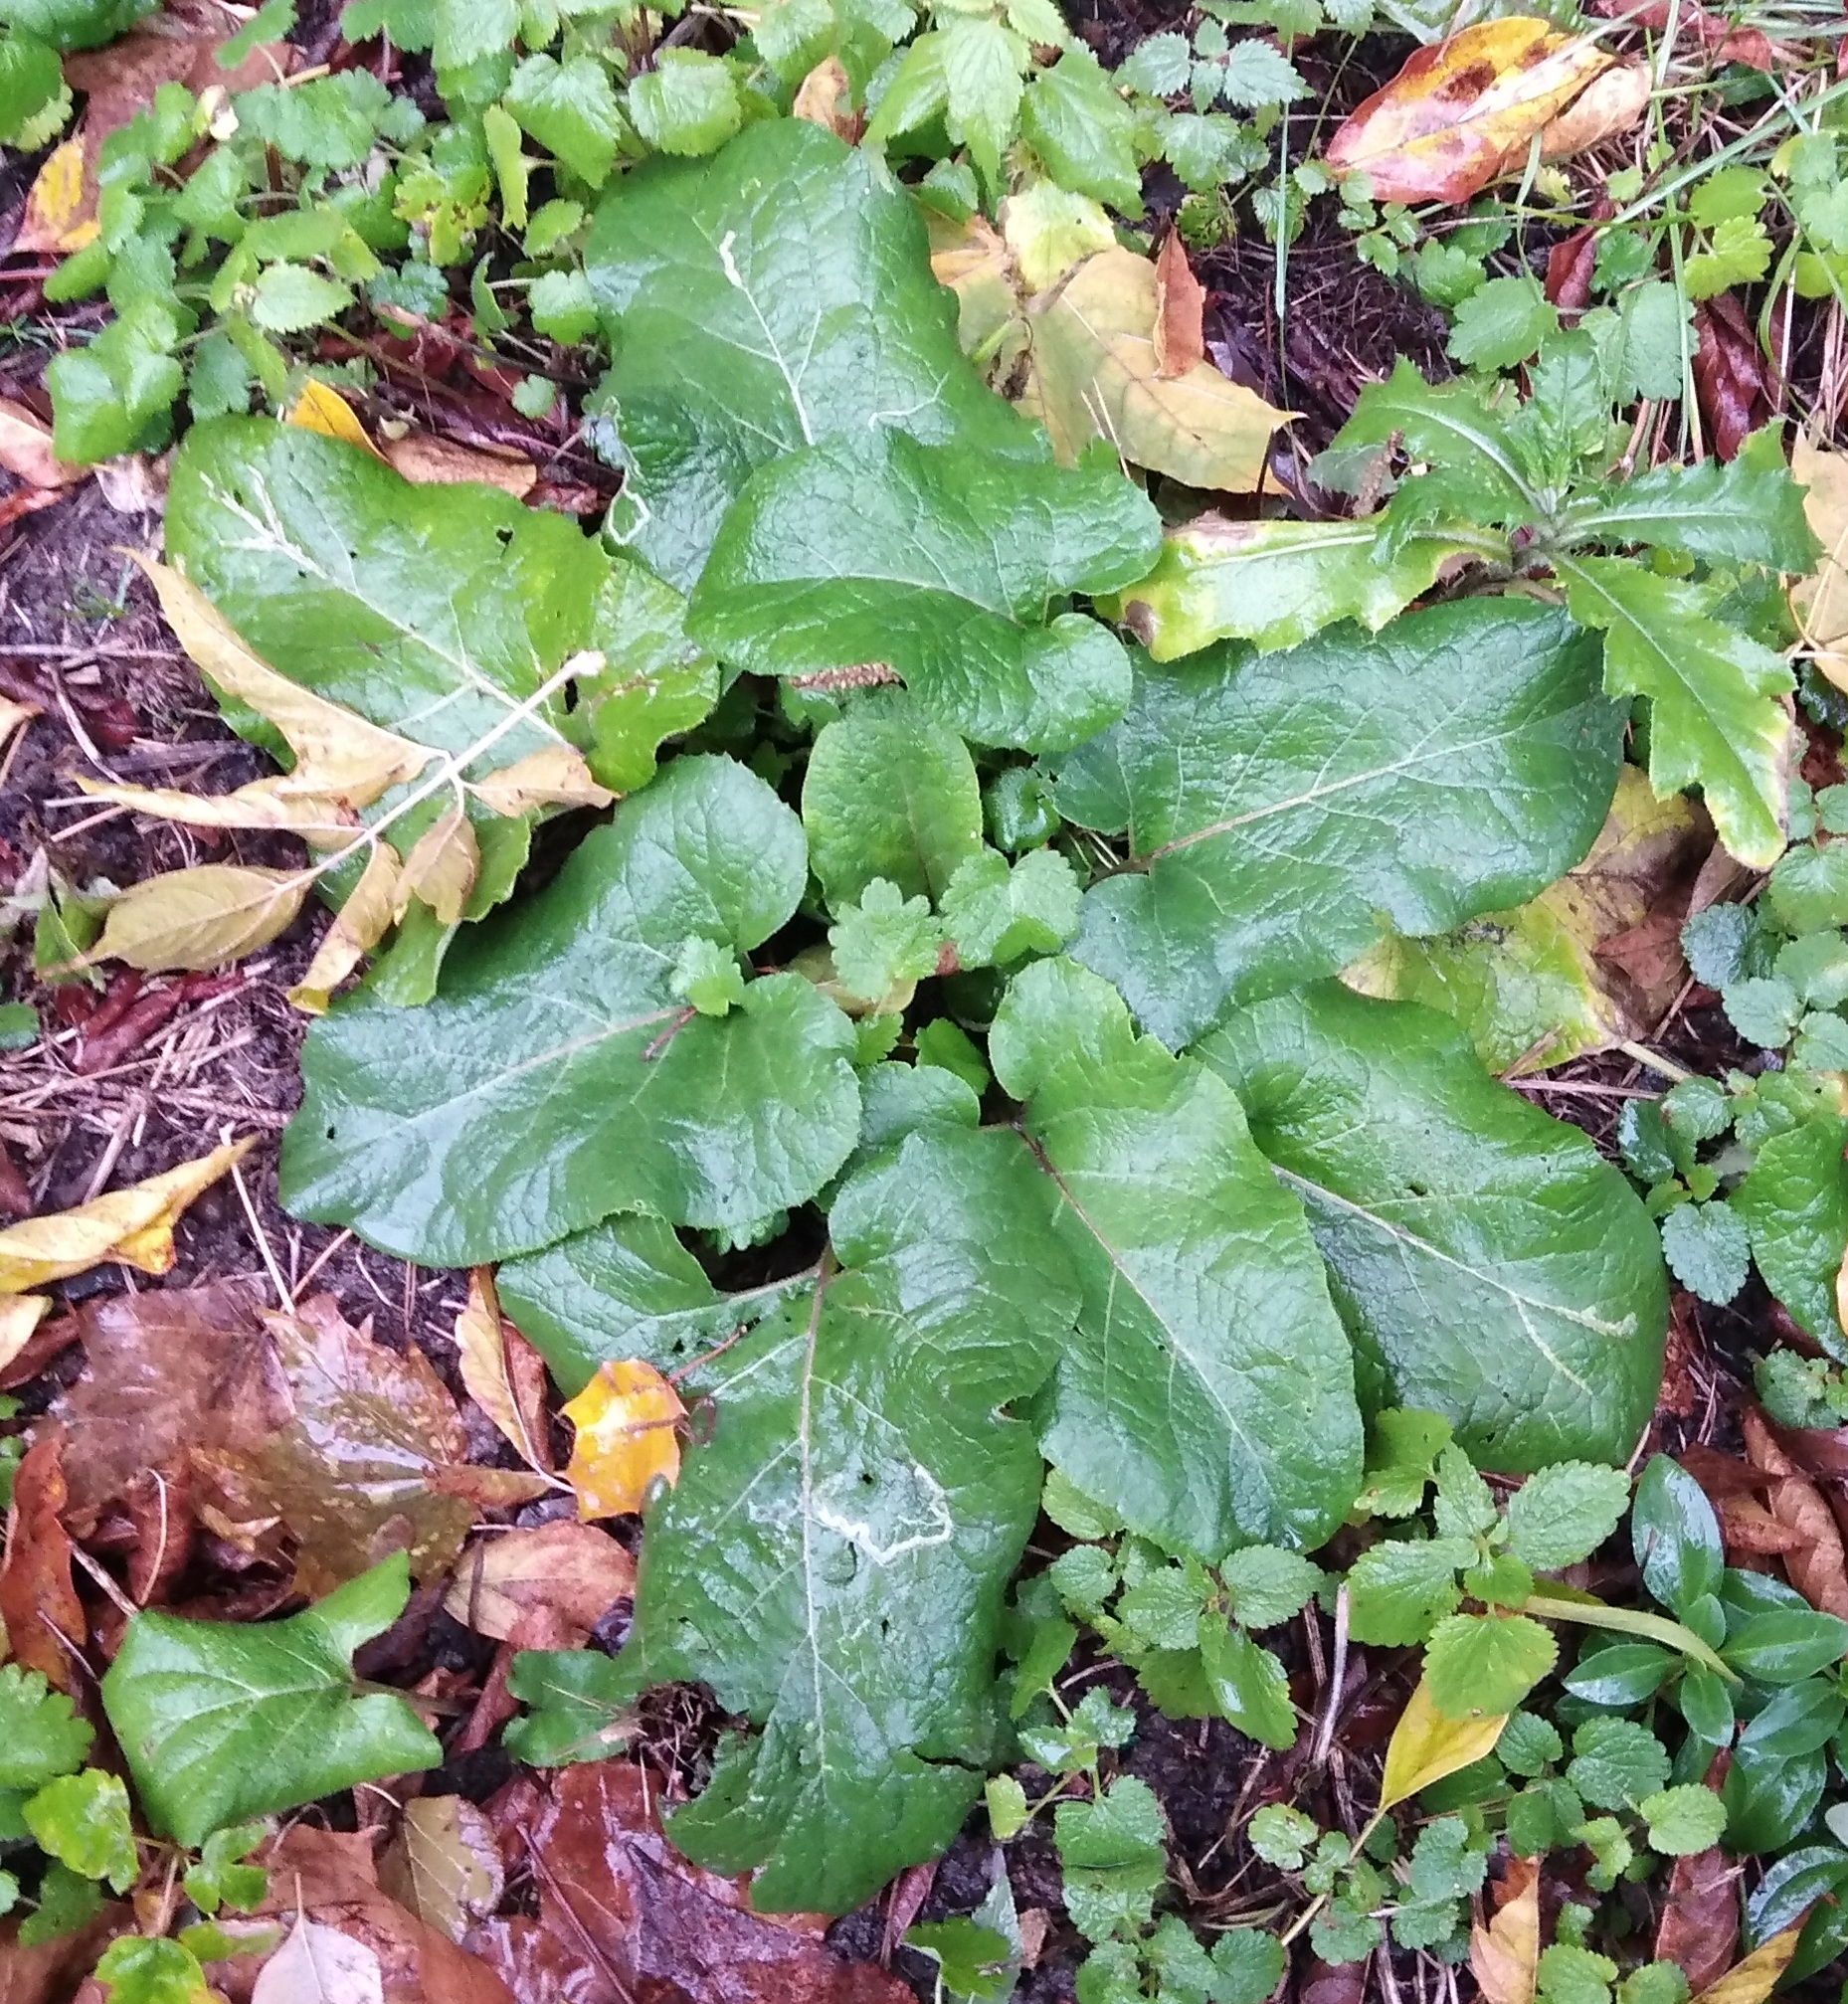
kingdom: Plantae
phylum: Tracheophyta
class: Magnoliopsida
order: Asterales
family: Asteraceae
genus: Arctium
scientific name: Arctium
